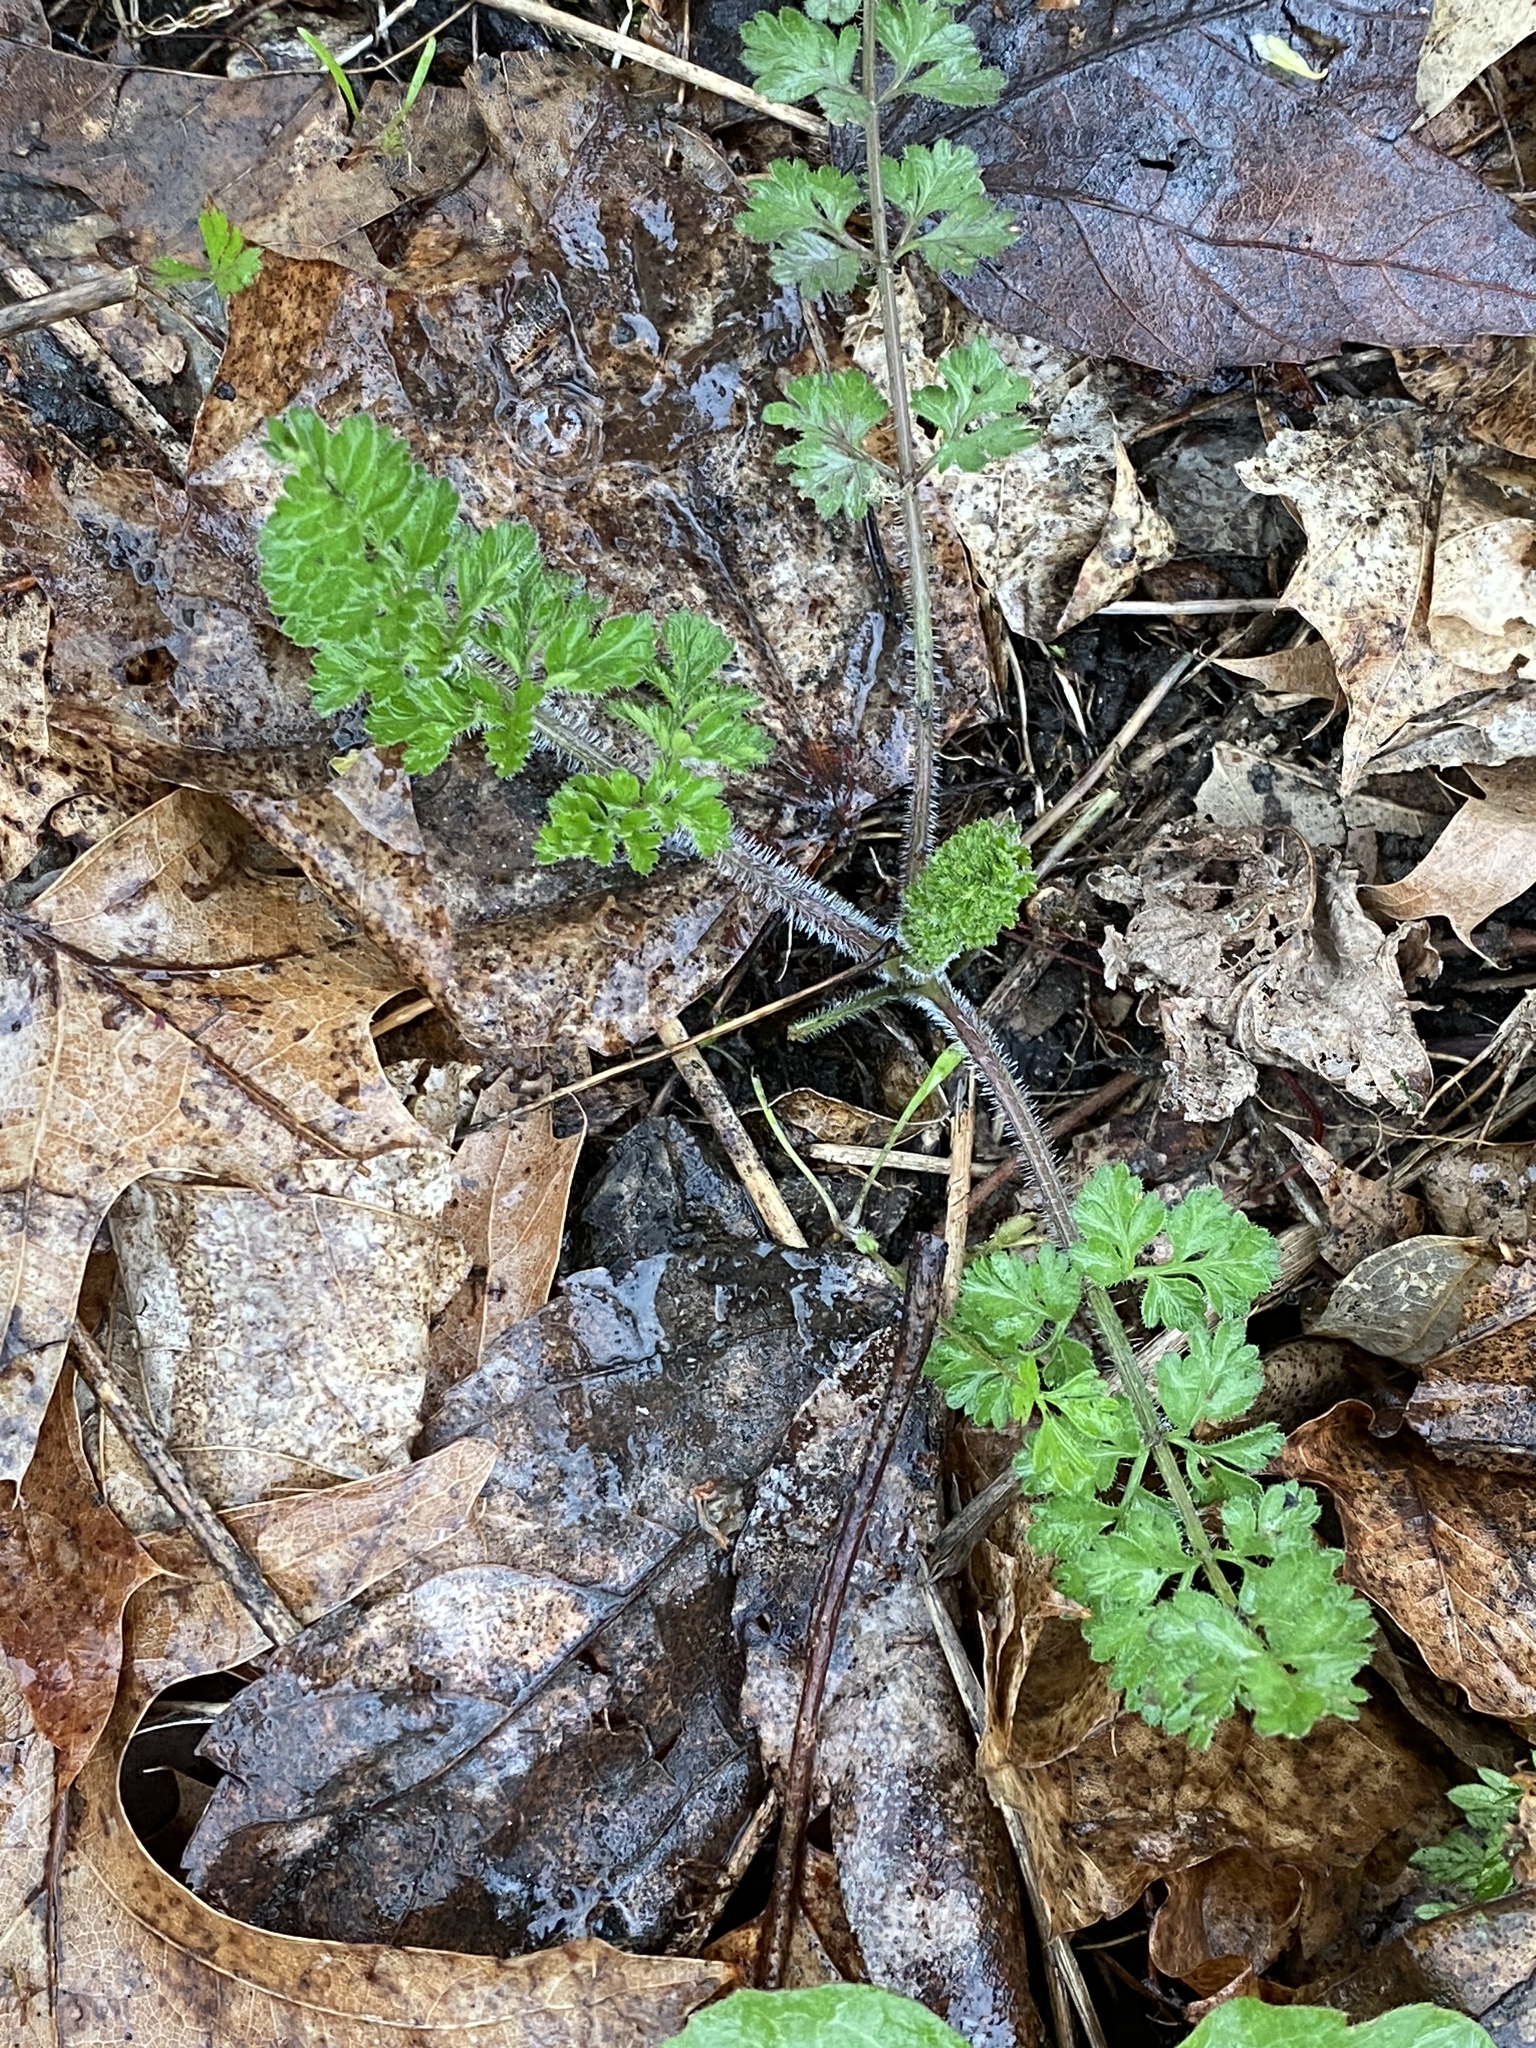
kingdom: Plantae
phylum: Tracheophyta
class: Magnoliopsida
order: Apiales
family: Apiaceae
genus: Daucus
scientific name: Daucus carota
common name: Wild carrot
